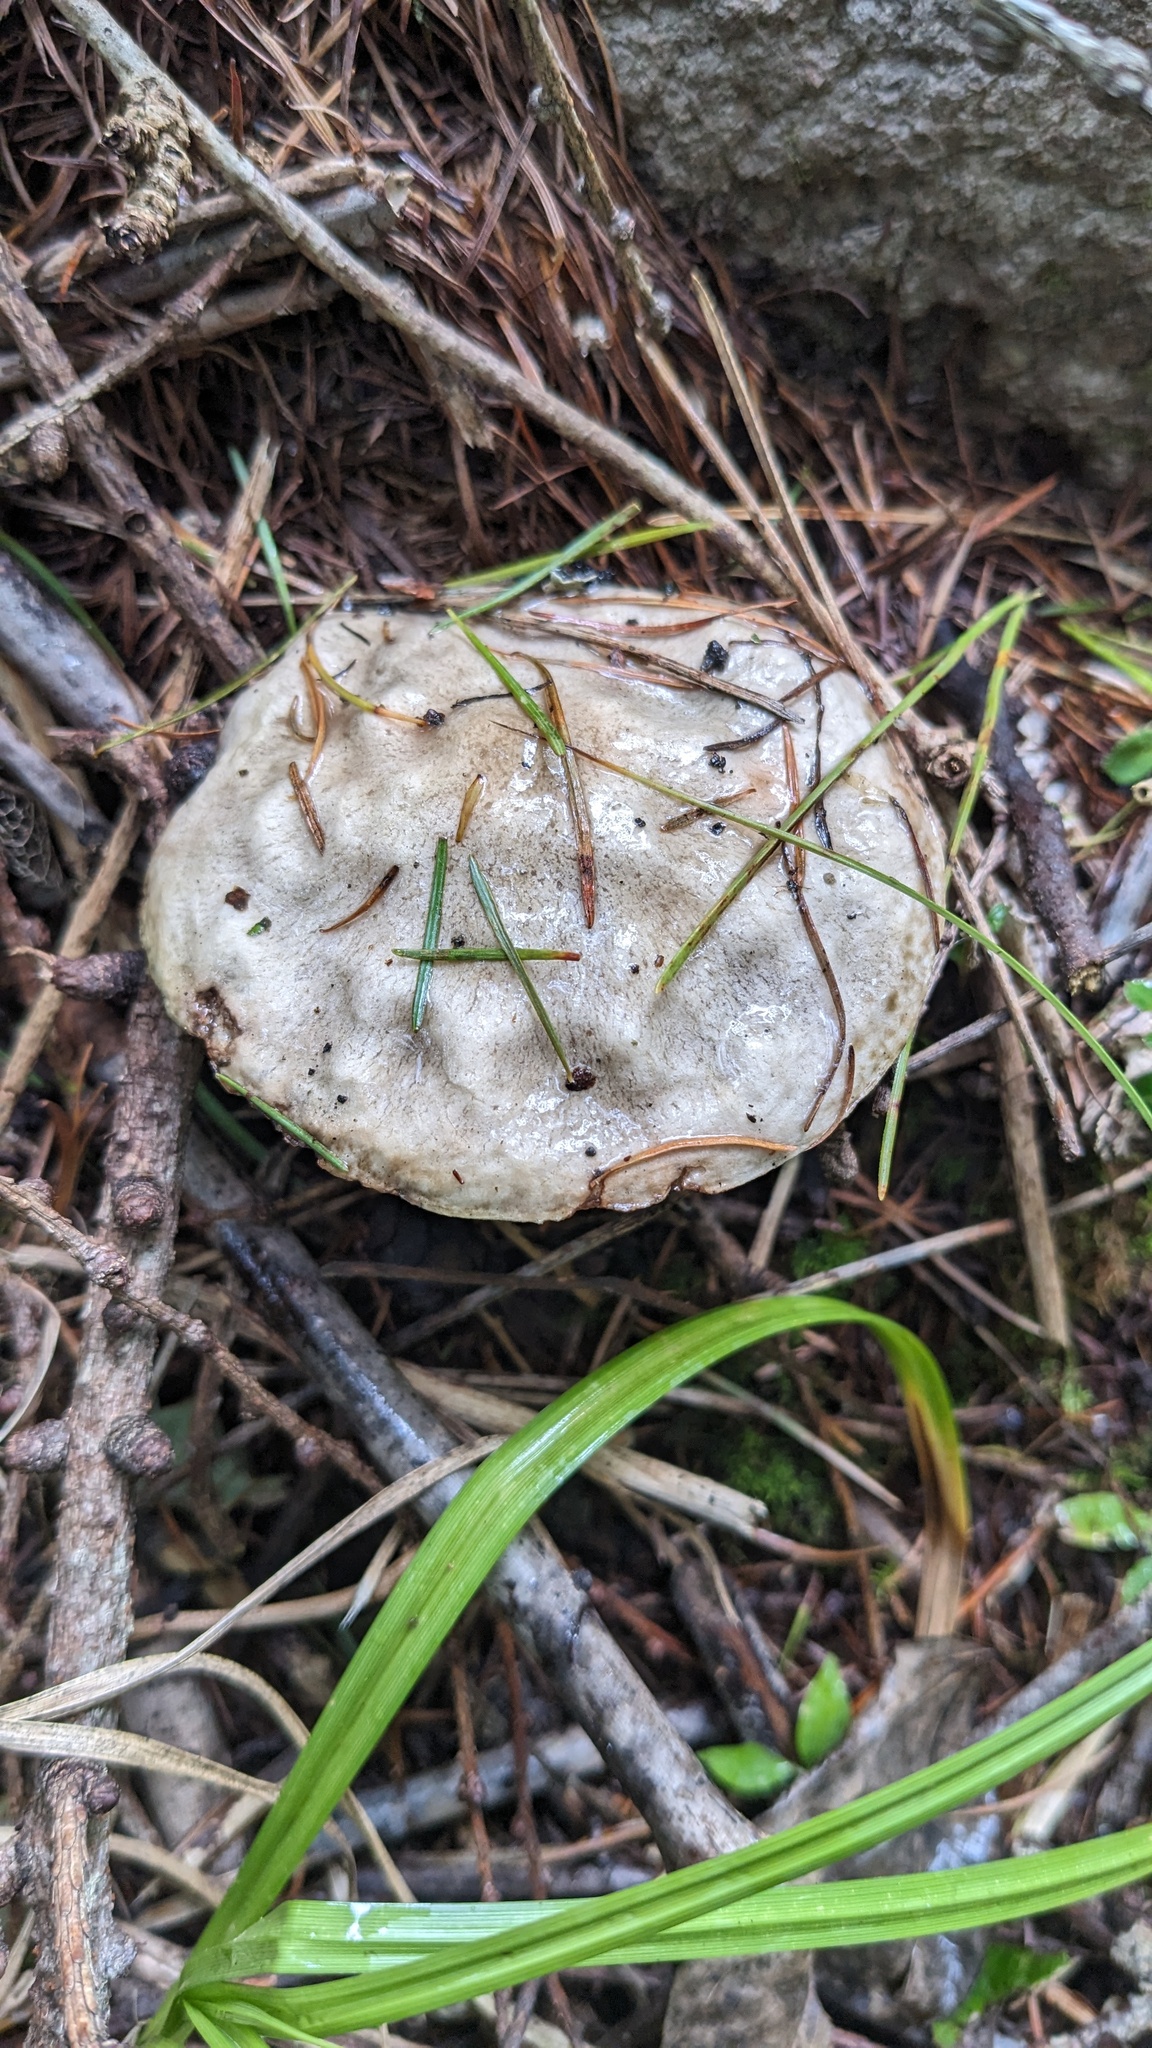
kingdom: Fungi
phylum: Basidiomycota
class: Agaricomycetes
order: Boletales
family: Suillaceae
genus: Suillus
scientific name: Suillus viscidus
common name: Sticky bolete
